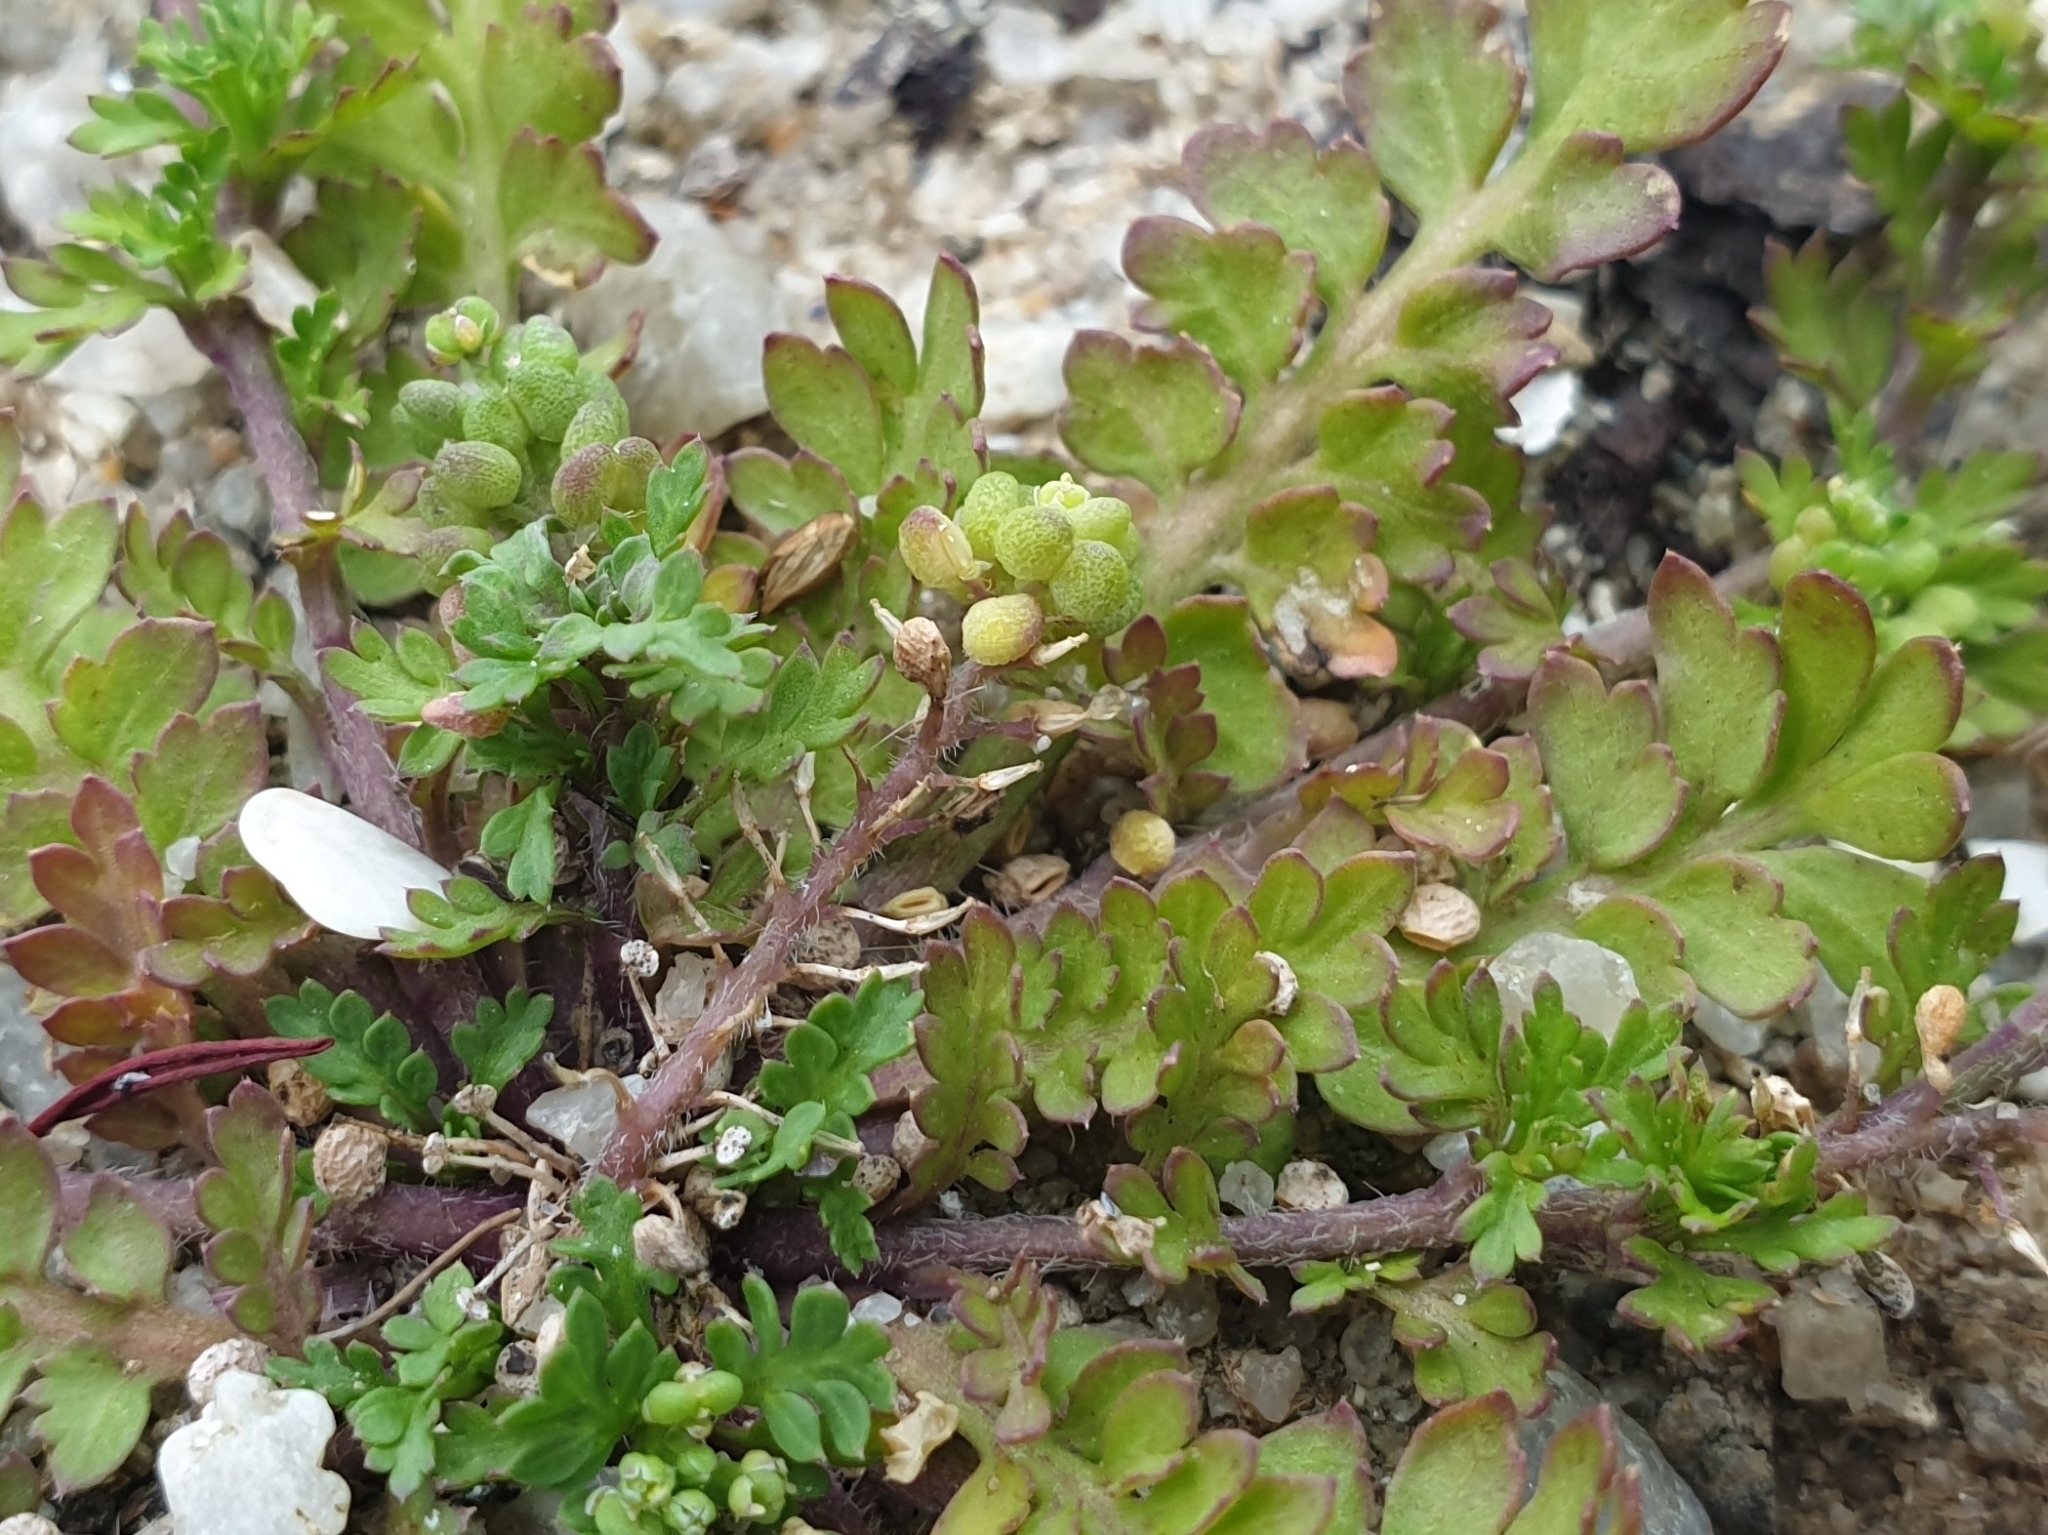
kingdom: Plantae
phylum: Tracheophyta
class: Magnoliopsida
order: Brassicales
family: Brassicaceae
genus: Lepidium
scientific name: Lepidium didymum
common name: Lesser swinecress
